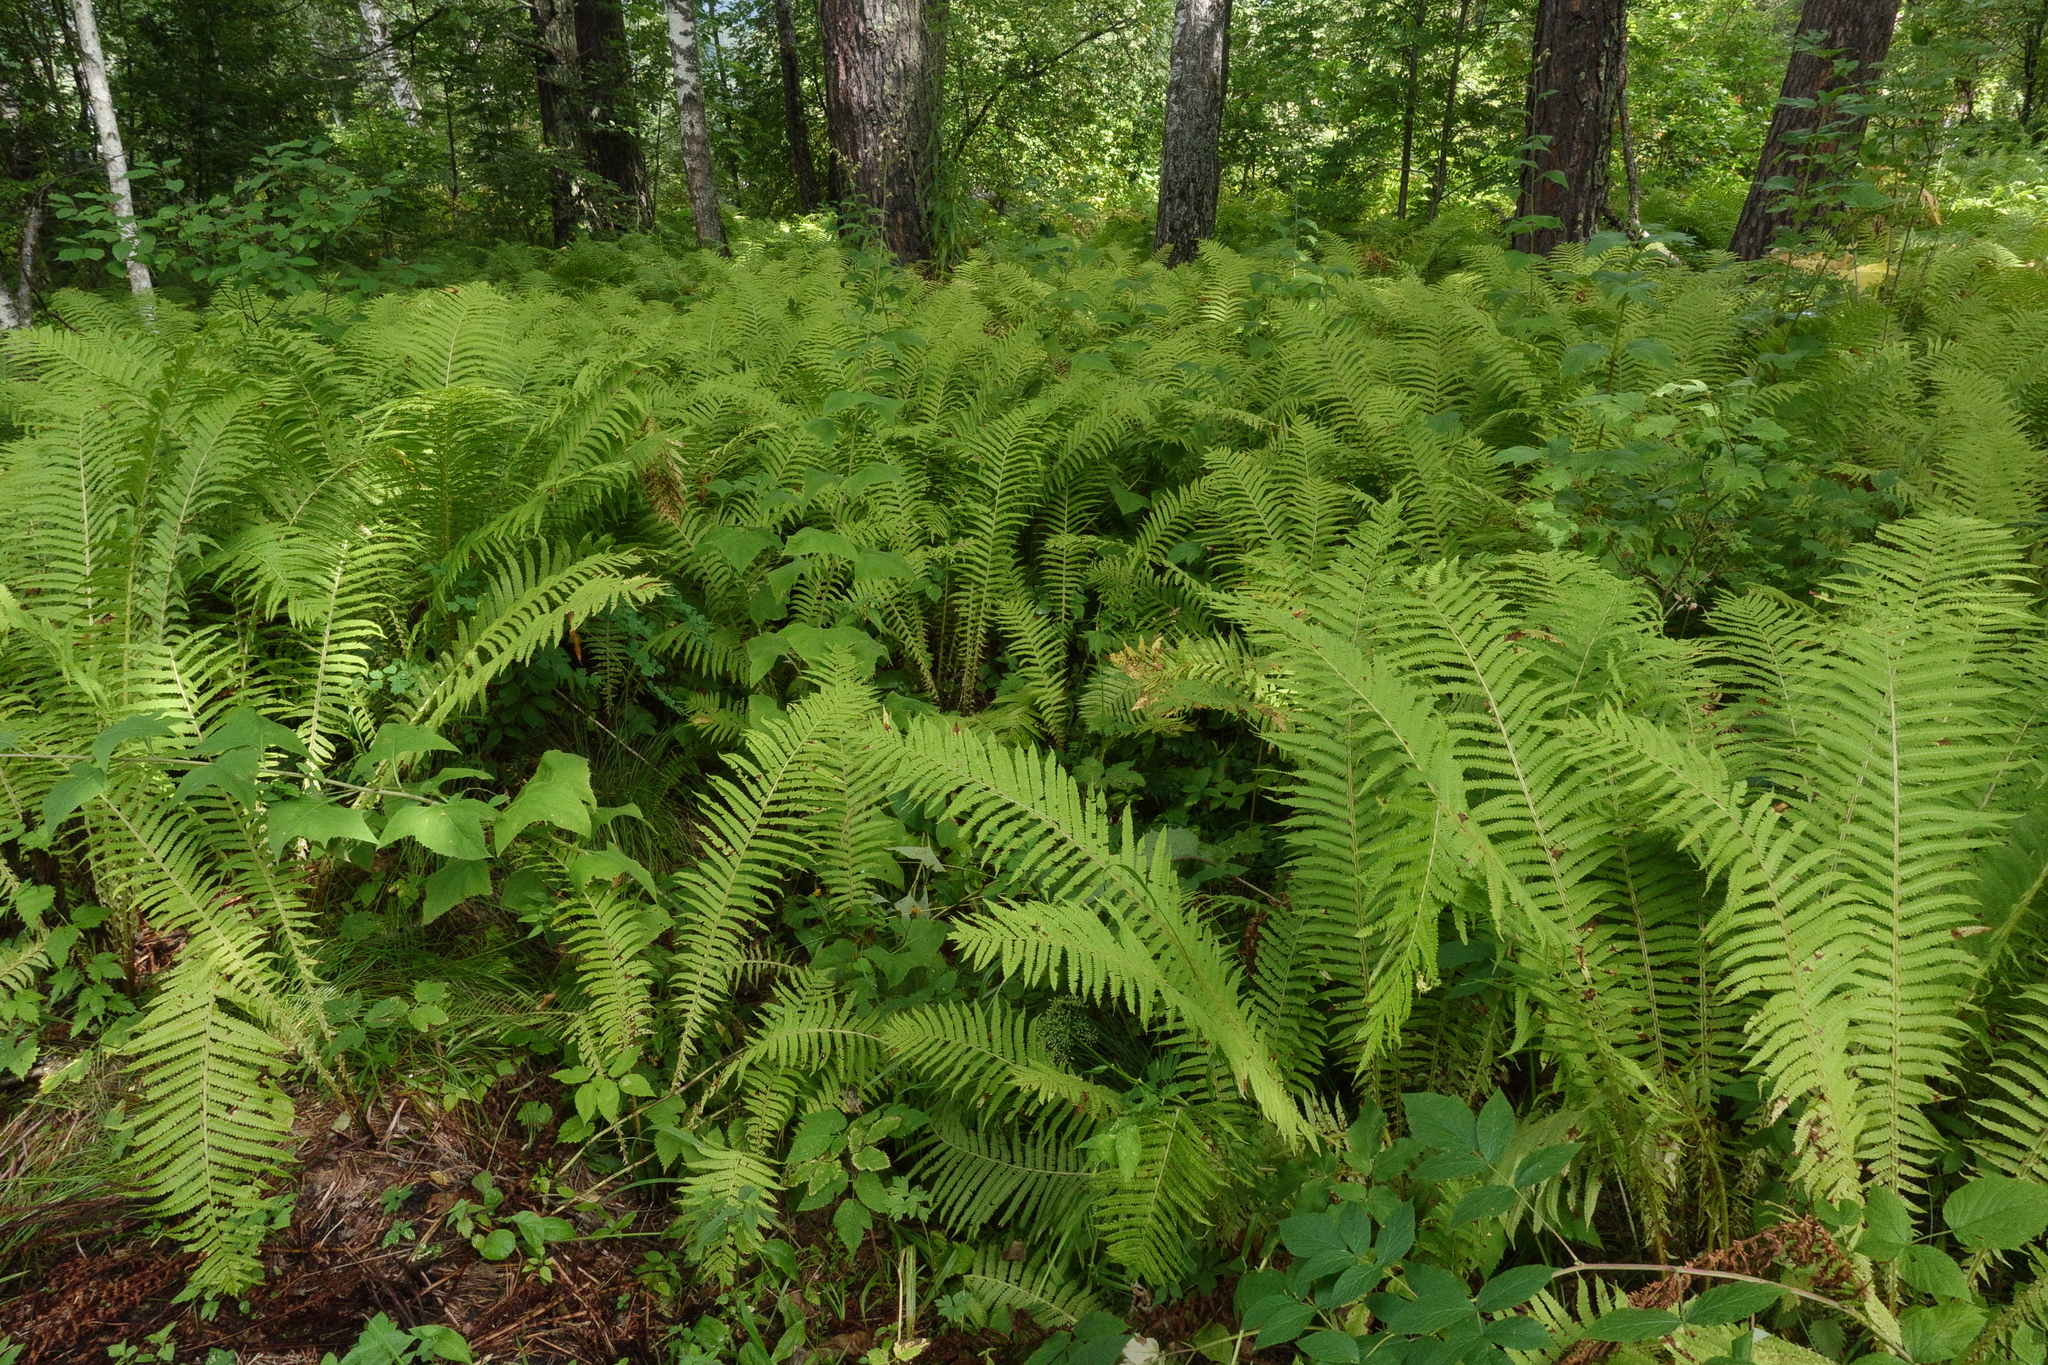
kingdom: Plantae
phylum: Tracheophyta
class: Polypodiopsida
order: Polypodiales
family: Onocleaceae
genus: Matteuccia
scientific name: Matteuccia struthiopteris
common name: Ostrich fern
